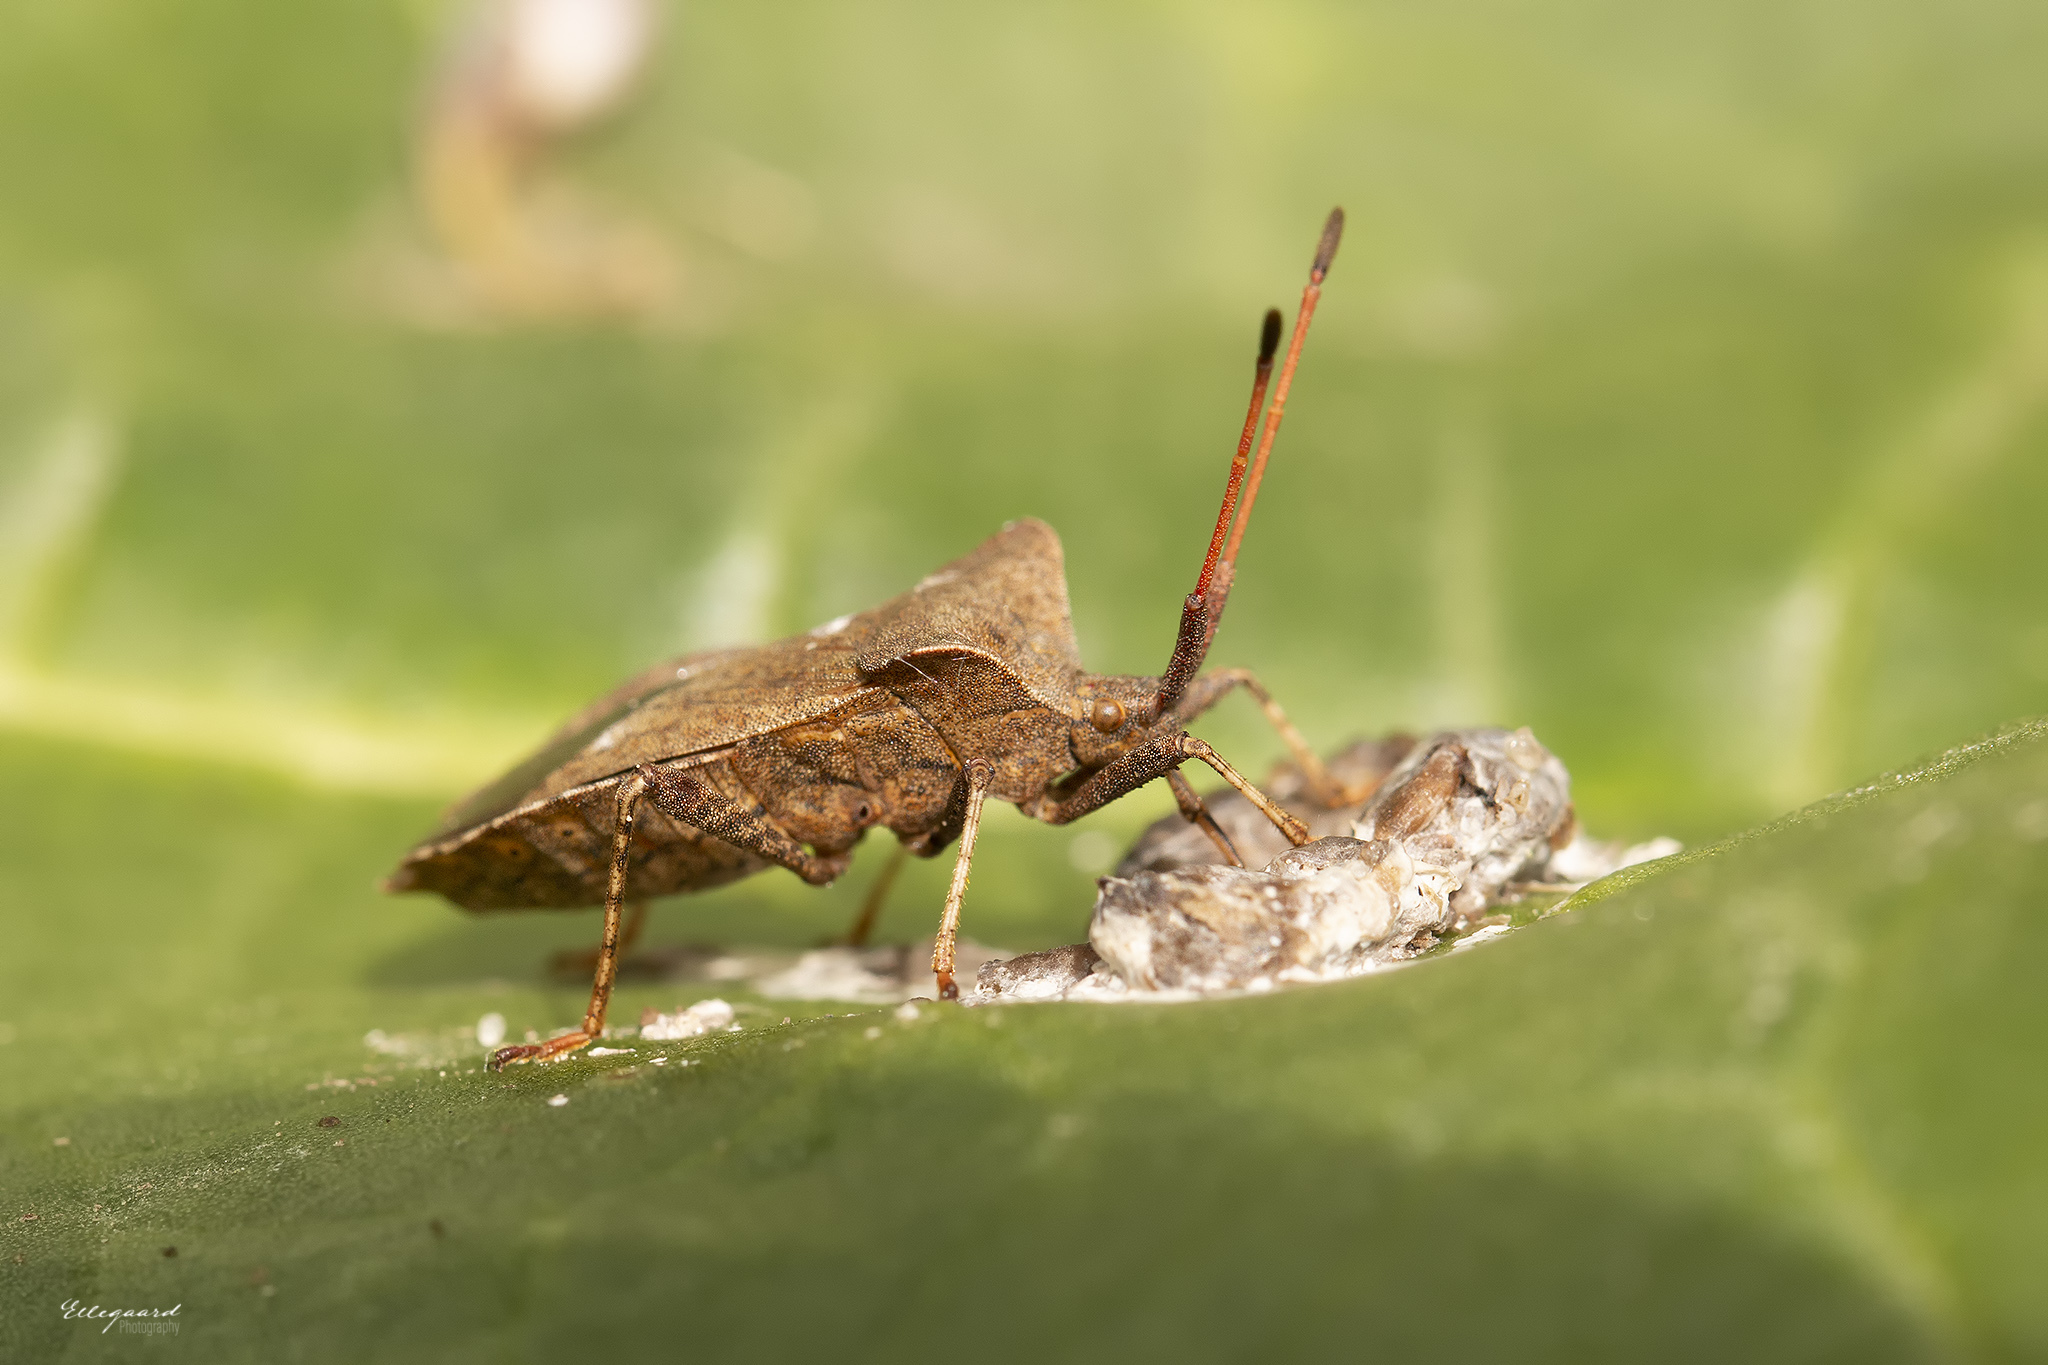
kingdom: Animalia
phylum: Arthropoda
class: Insecta
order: Hemiptera
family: Coreidae
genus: Coreus
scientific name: Coreus marginatus
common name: Dock bug
